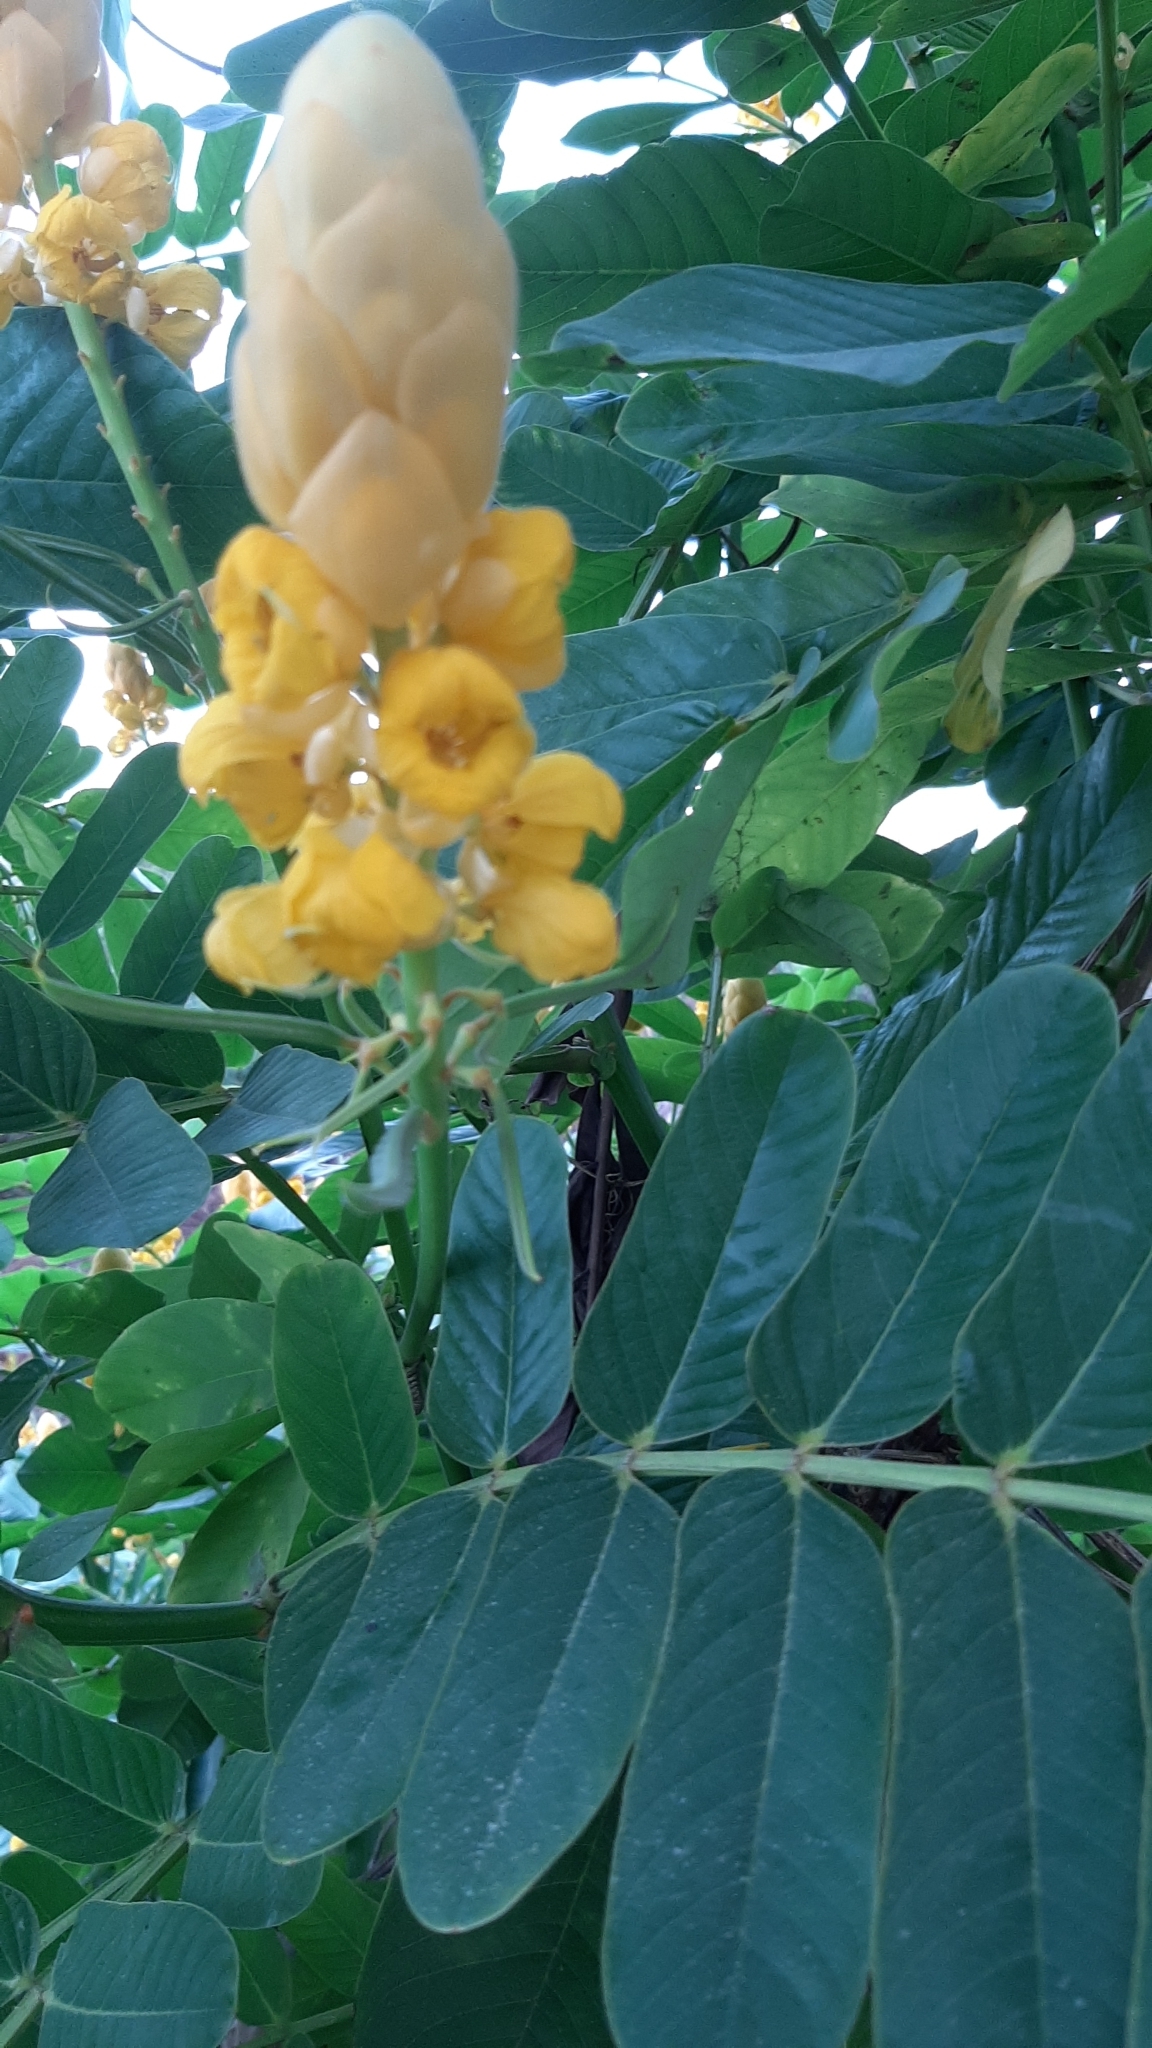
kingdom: Plantae
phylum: Tracheophyta
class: Magnoliopsida
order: Fabales
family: Fabaceae
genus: Senna
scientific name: Senna alata
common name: Emperor's candlesticks
